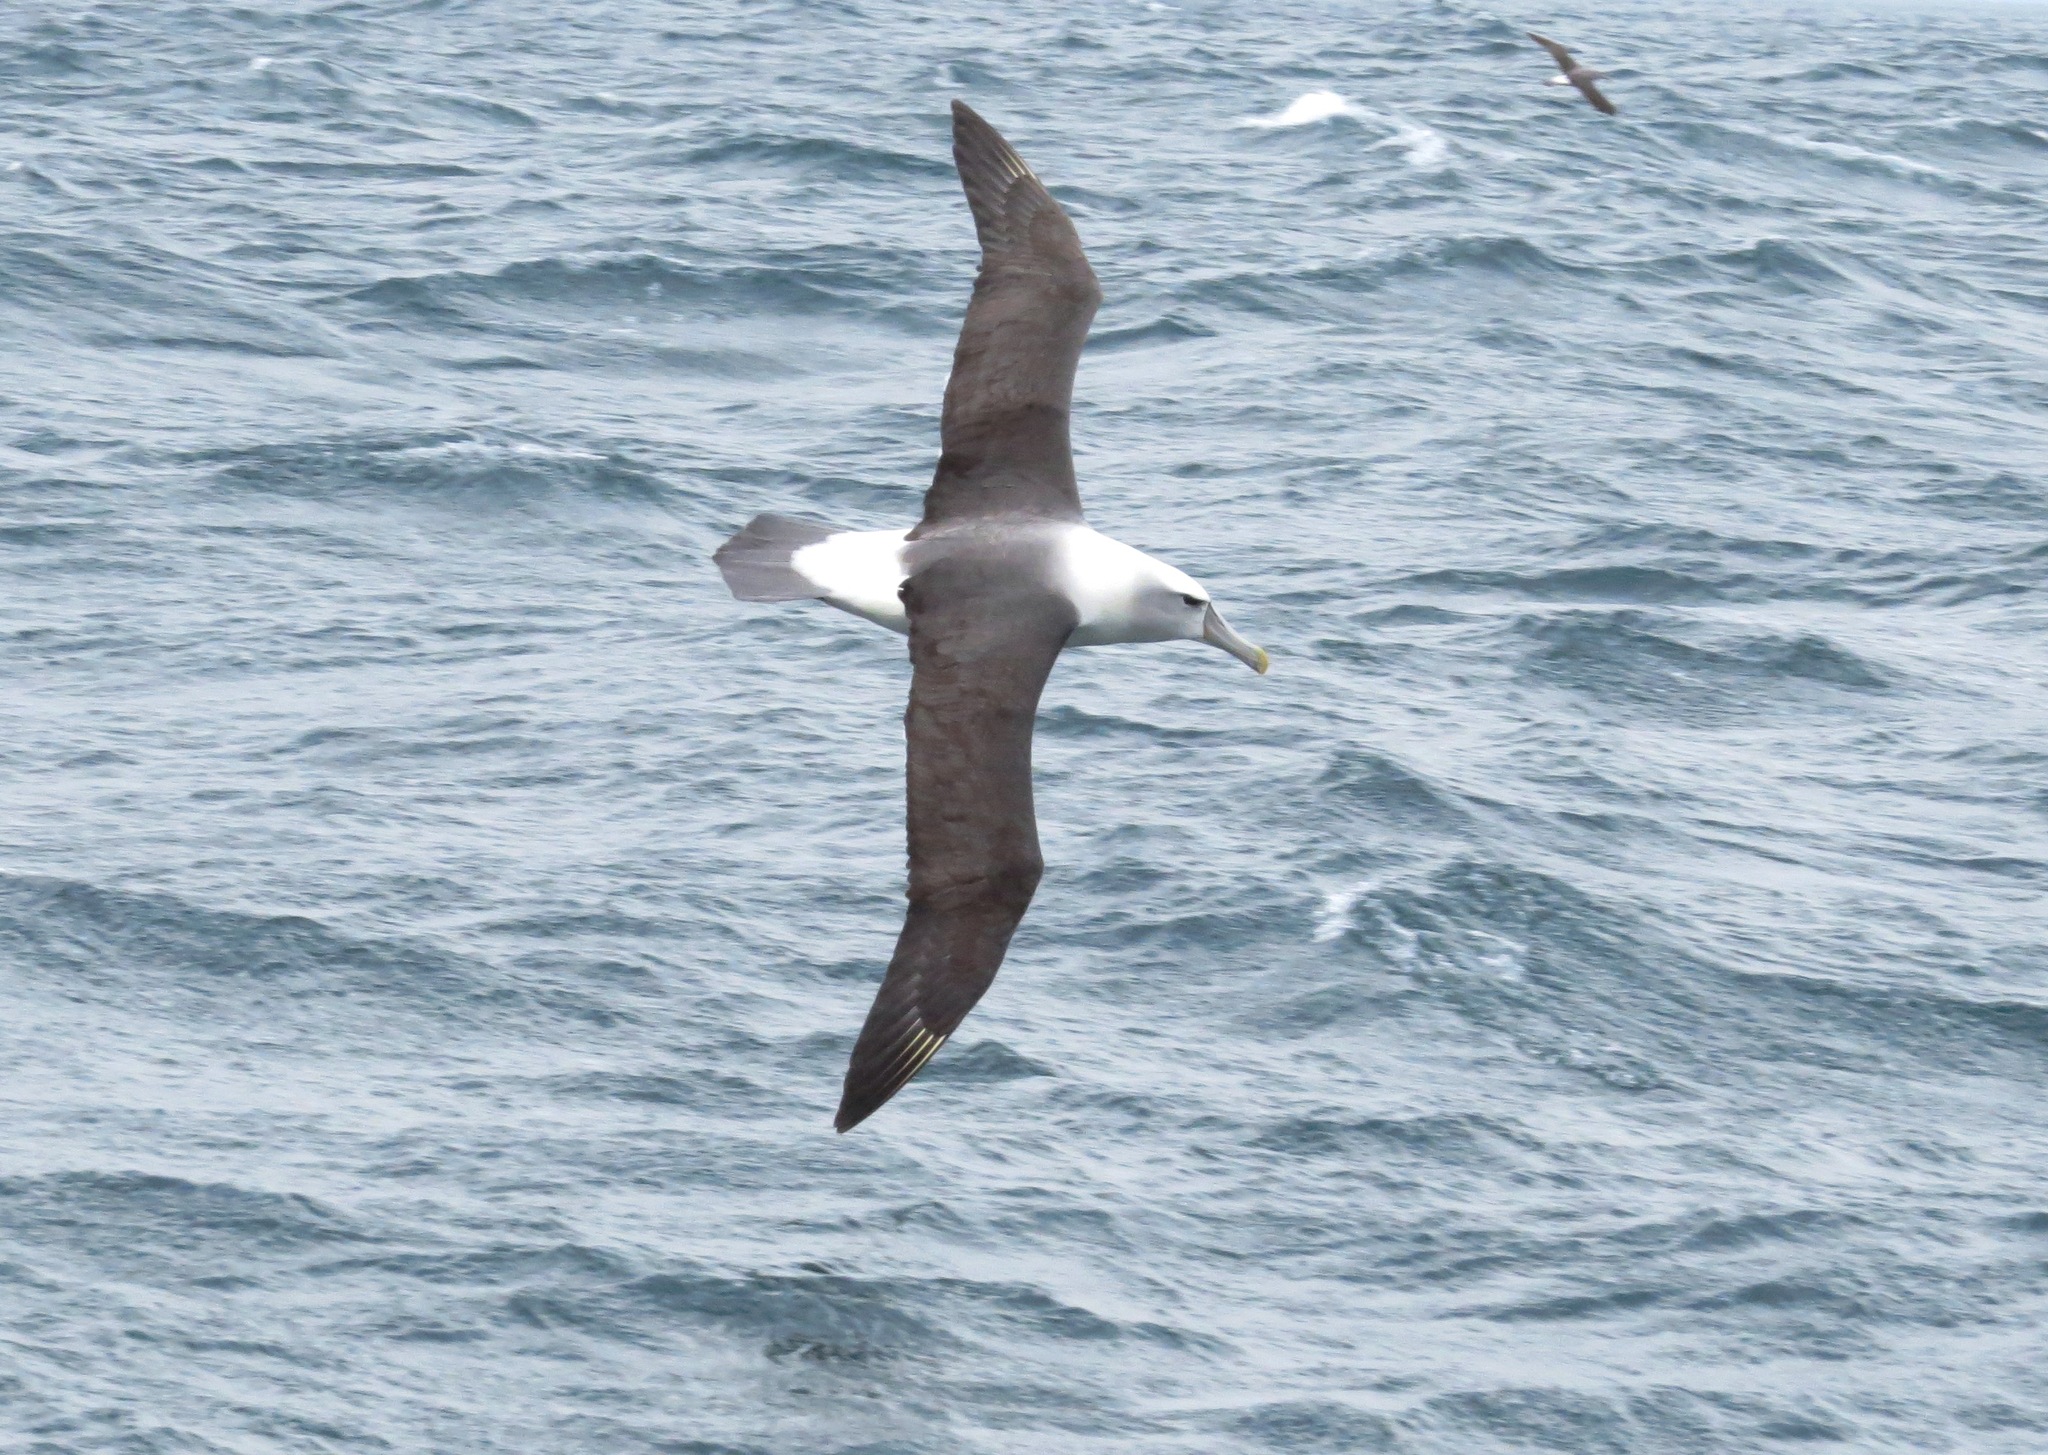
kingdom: Animalia
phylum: Chordata
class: Aves
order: Procellariiformes
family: Diomedeidae
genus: Thalassarche
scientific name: Thalassarche cauta
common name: Shy albatross
